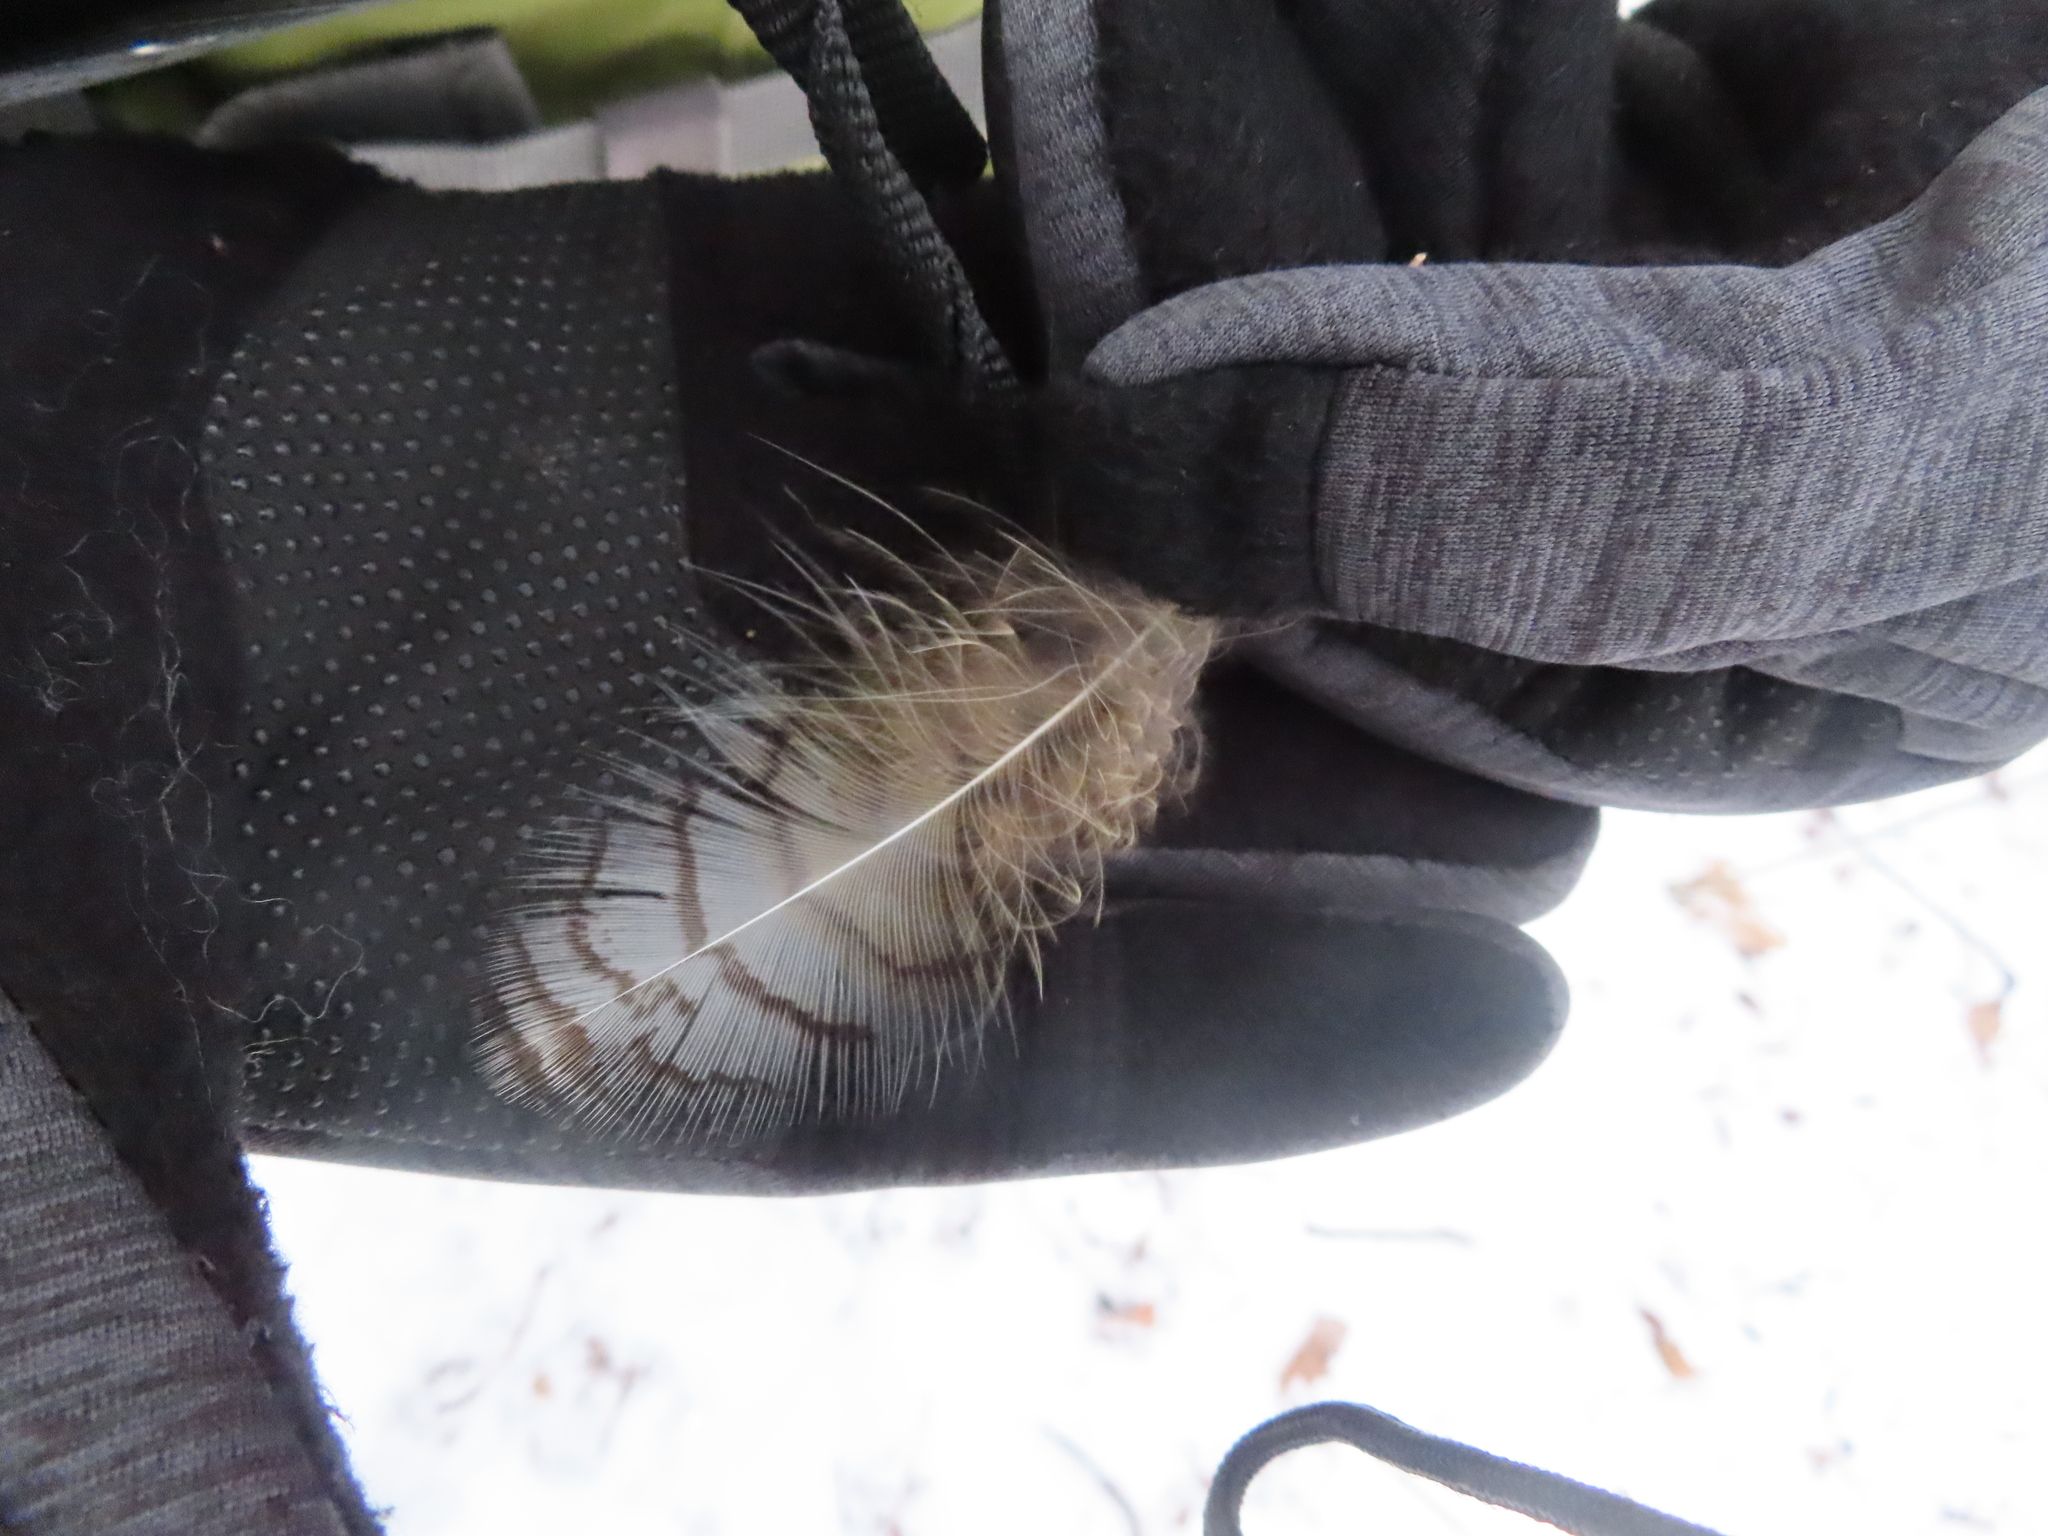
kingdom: Animalia
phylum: Chordata
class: Aves
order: Strigiformes
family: Strigidae
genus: Bubo
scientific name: Bubo virginianus
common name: Great horned owl
